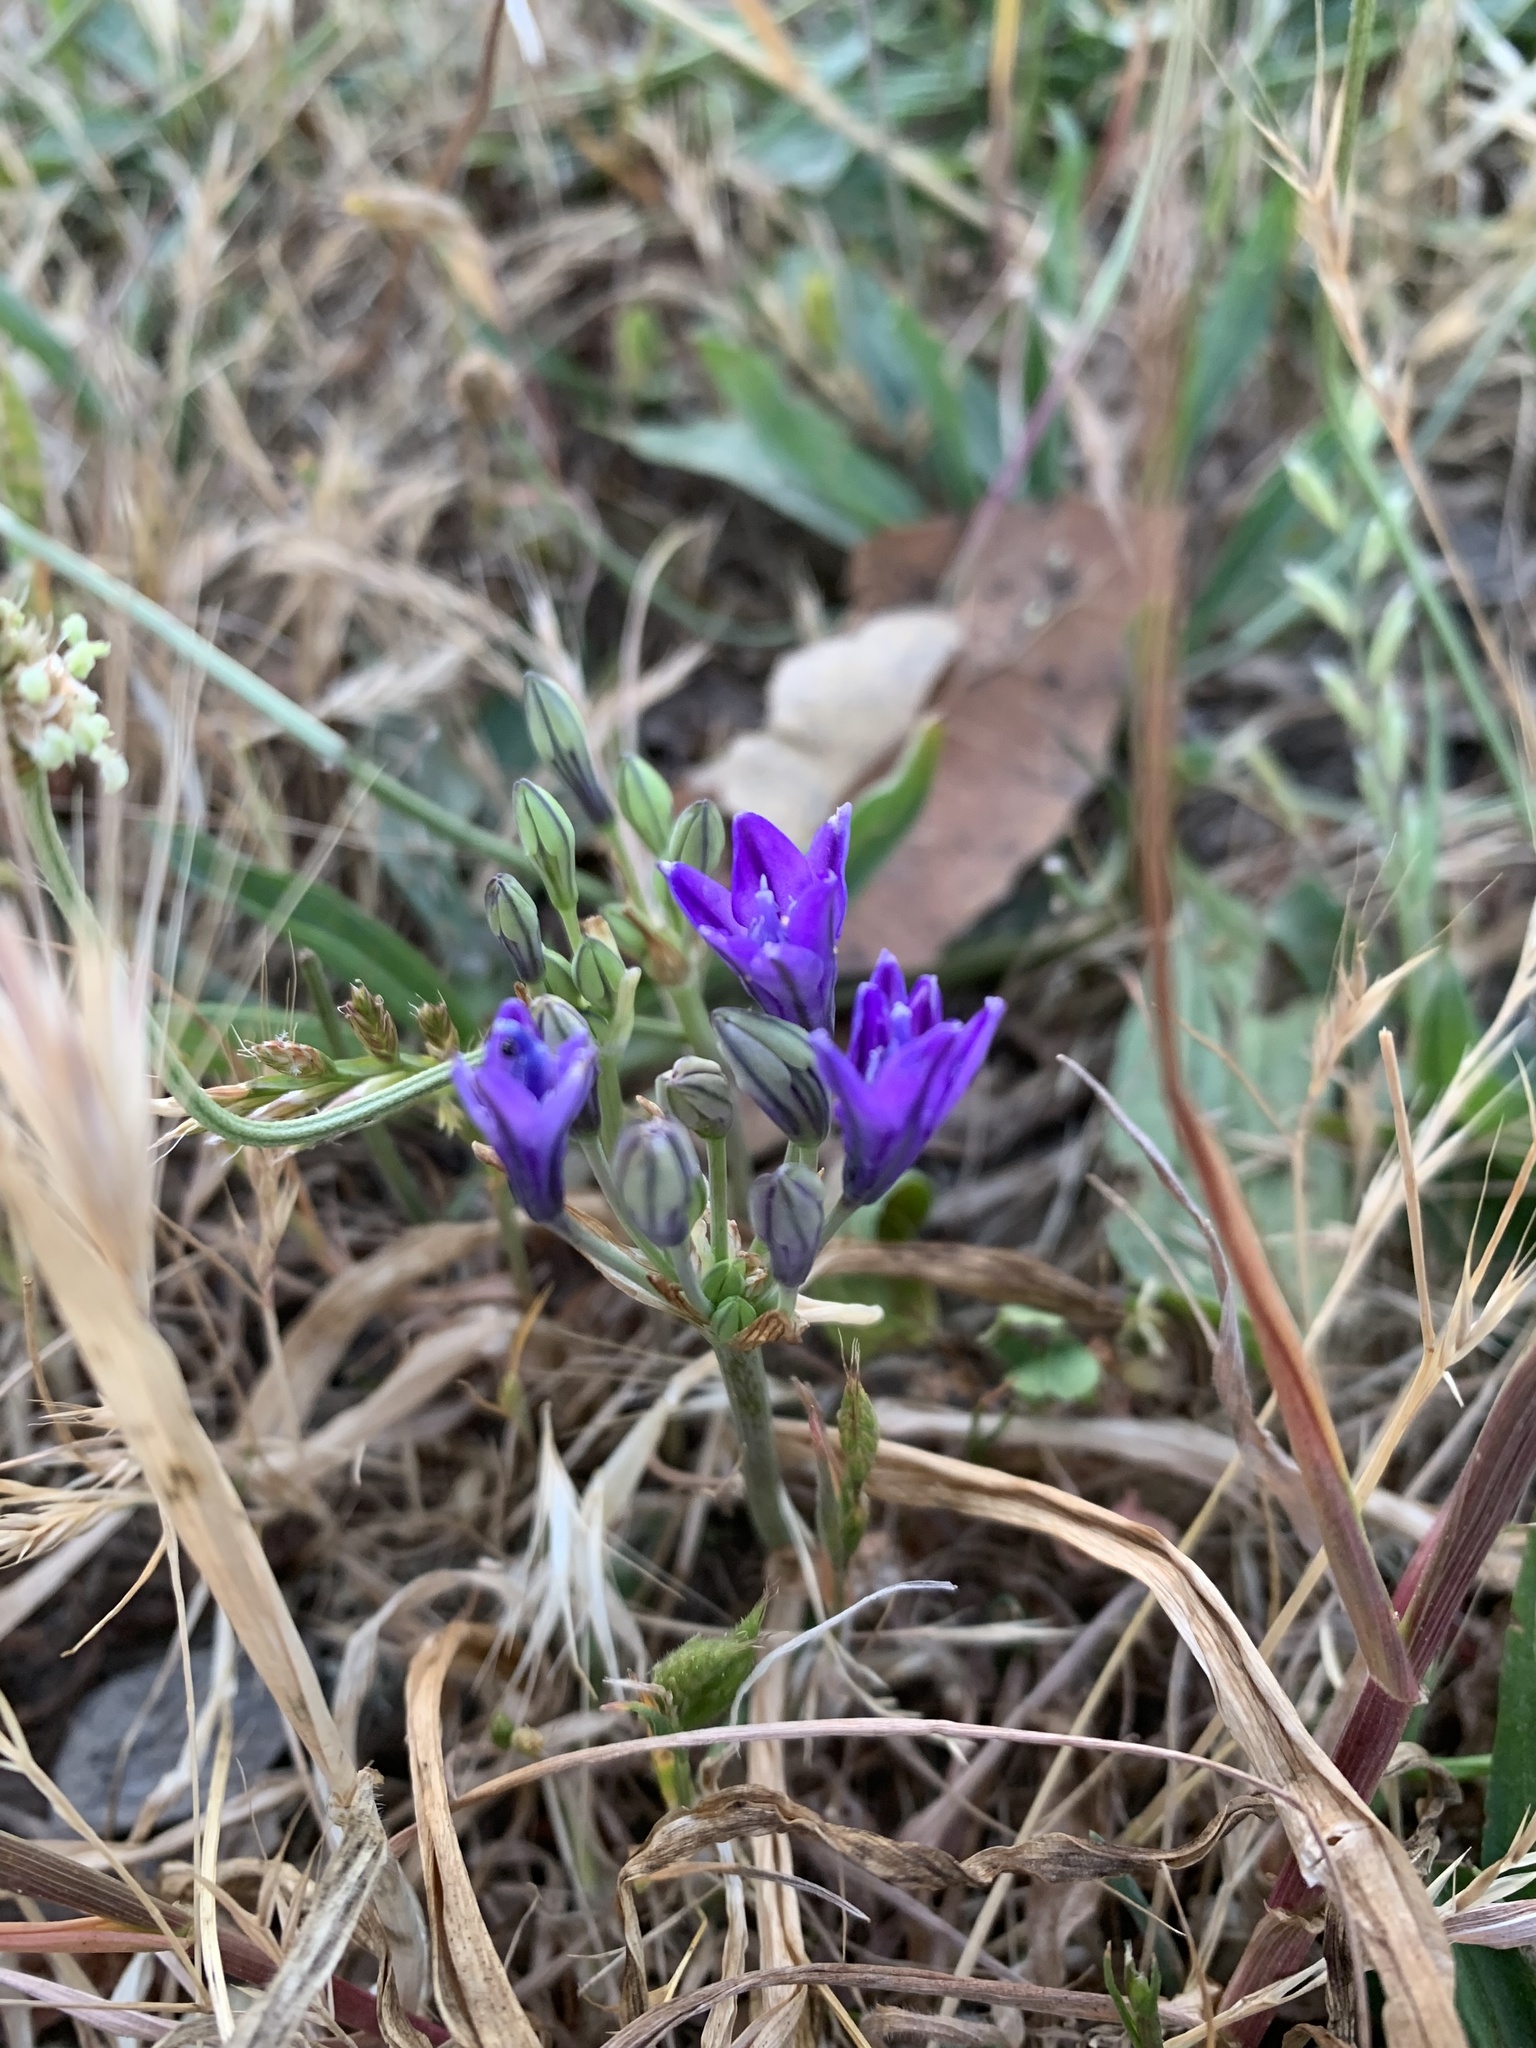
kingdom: Plantae
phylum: Tracheophyta
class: Liliopsida
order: Asparagales
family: Asparagaceae
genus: Triteleia
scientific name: Triteleia laxa
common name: Triplet-lily
